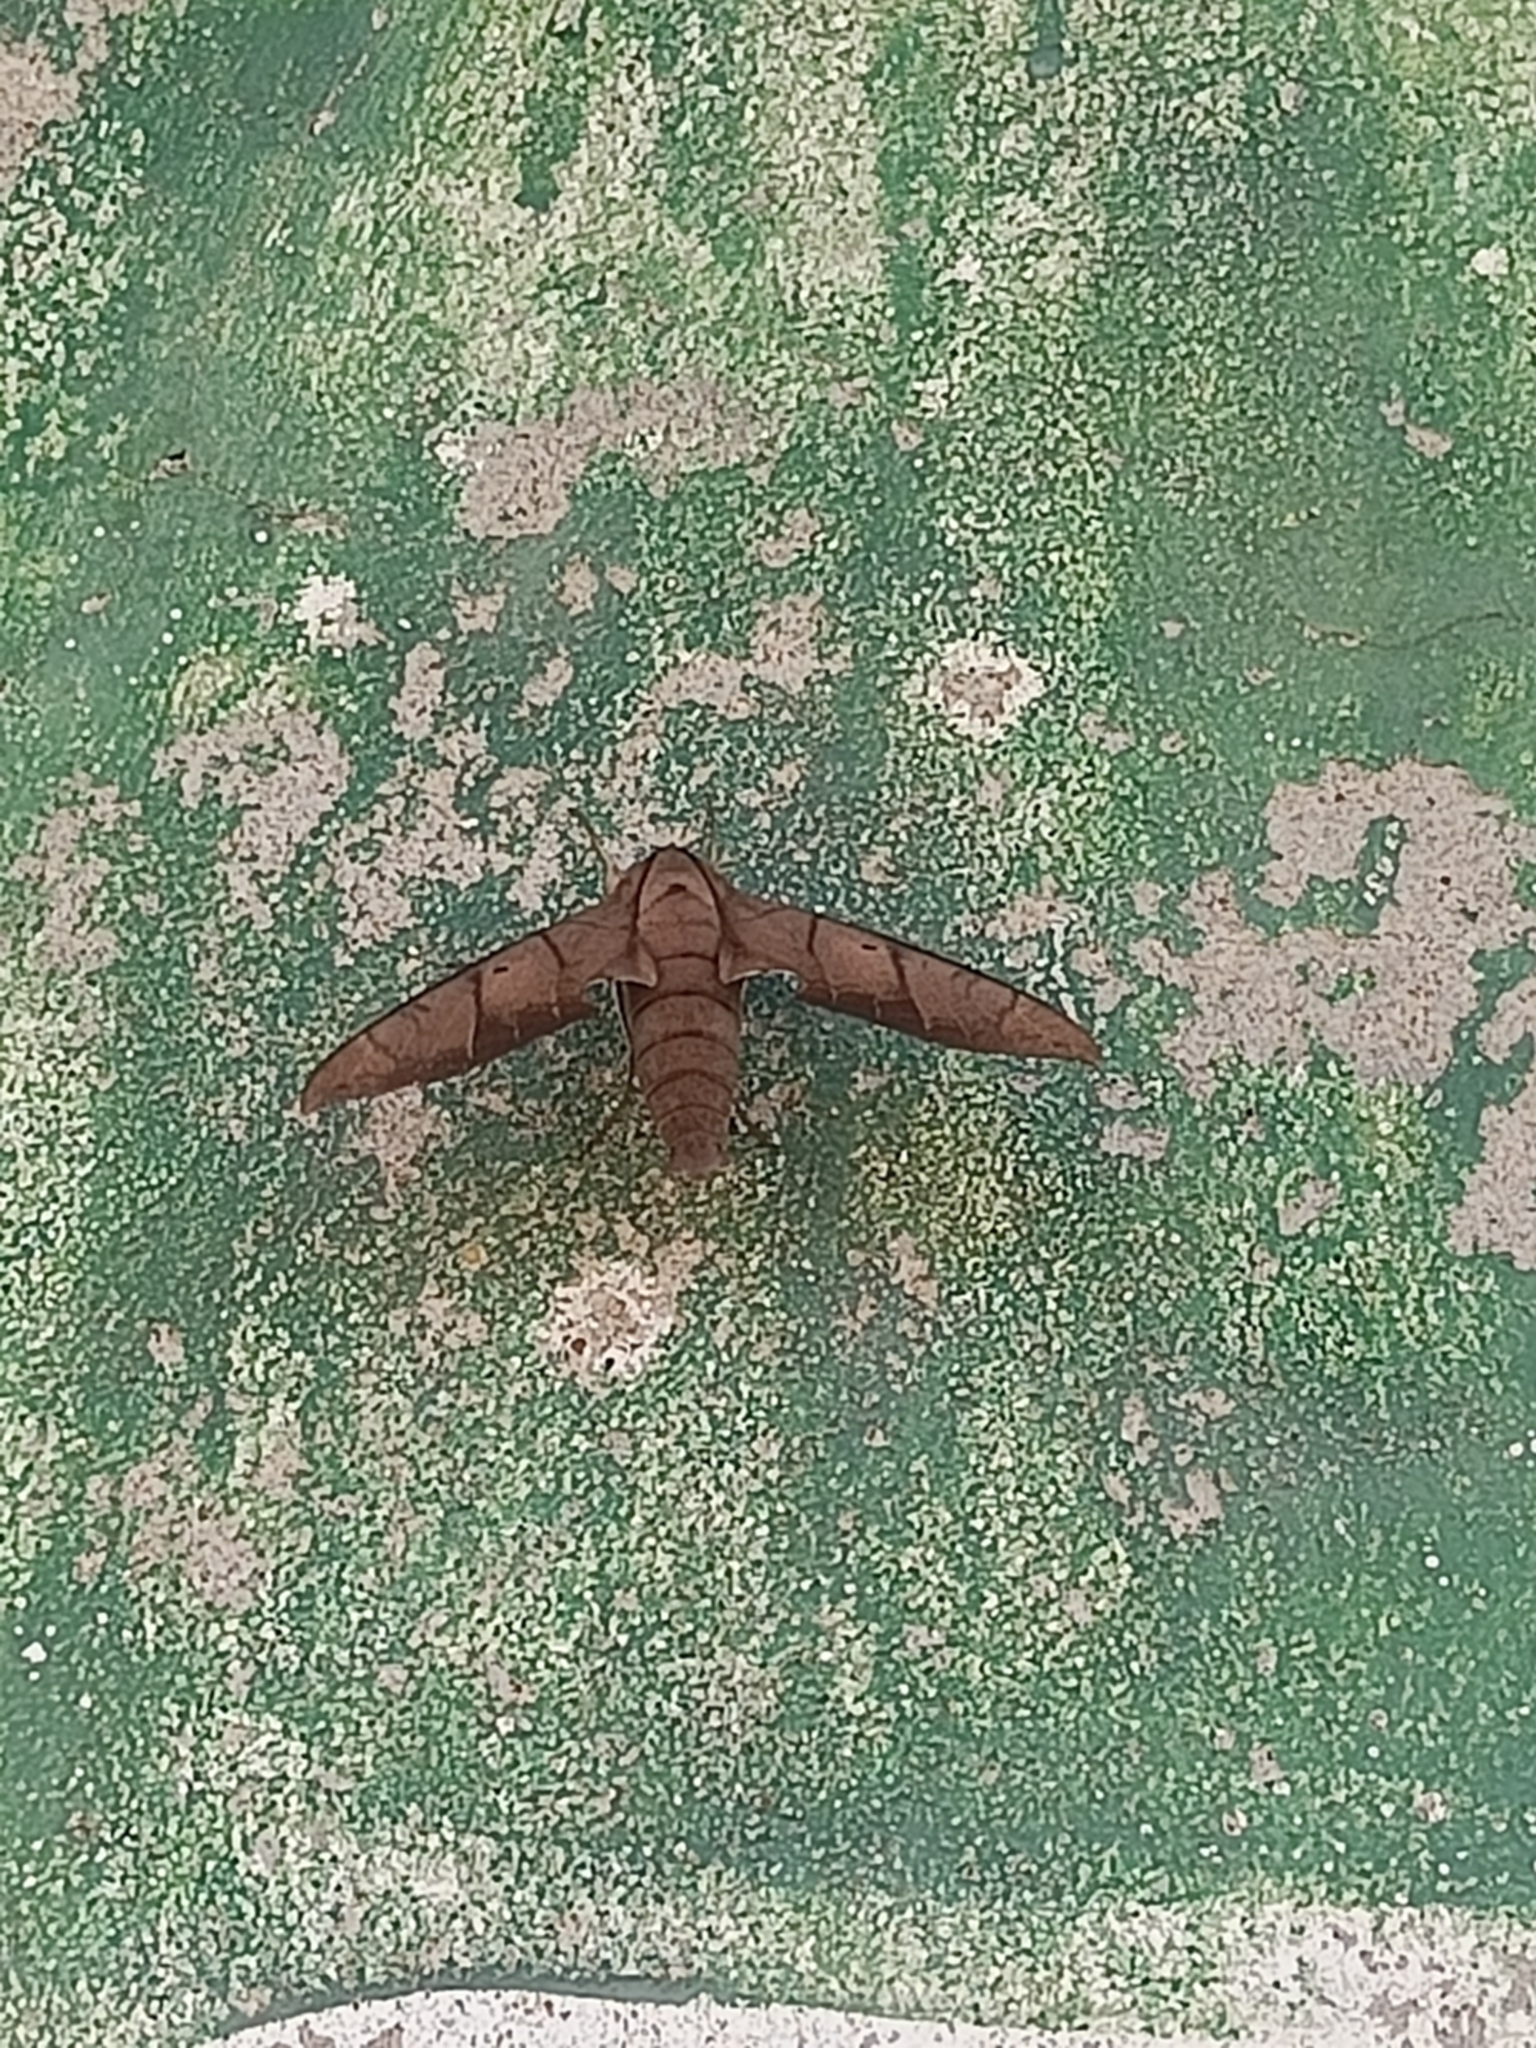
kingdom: Animalia
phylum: Arthropoda
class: Insecta
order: Lepidoptera
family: Sphingidae
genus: Pachylia
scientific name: Pachylia darceta
